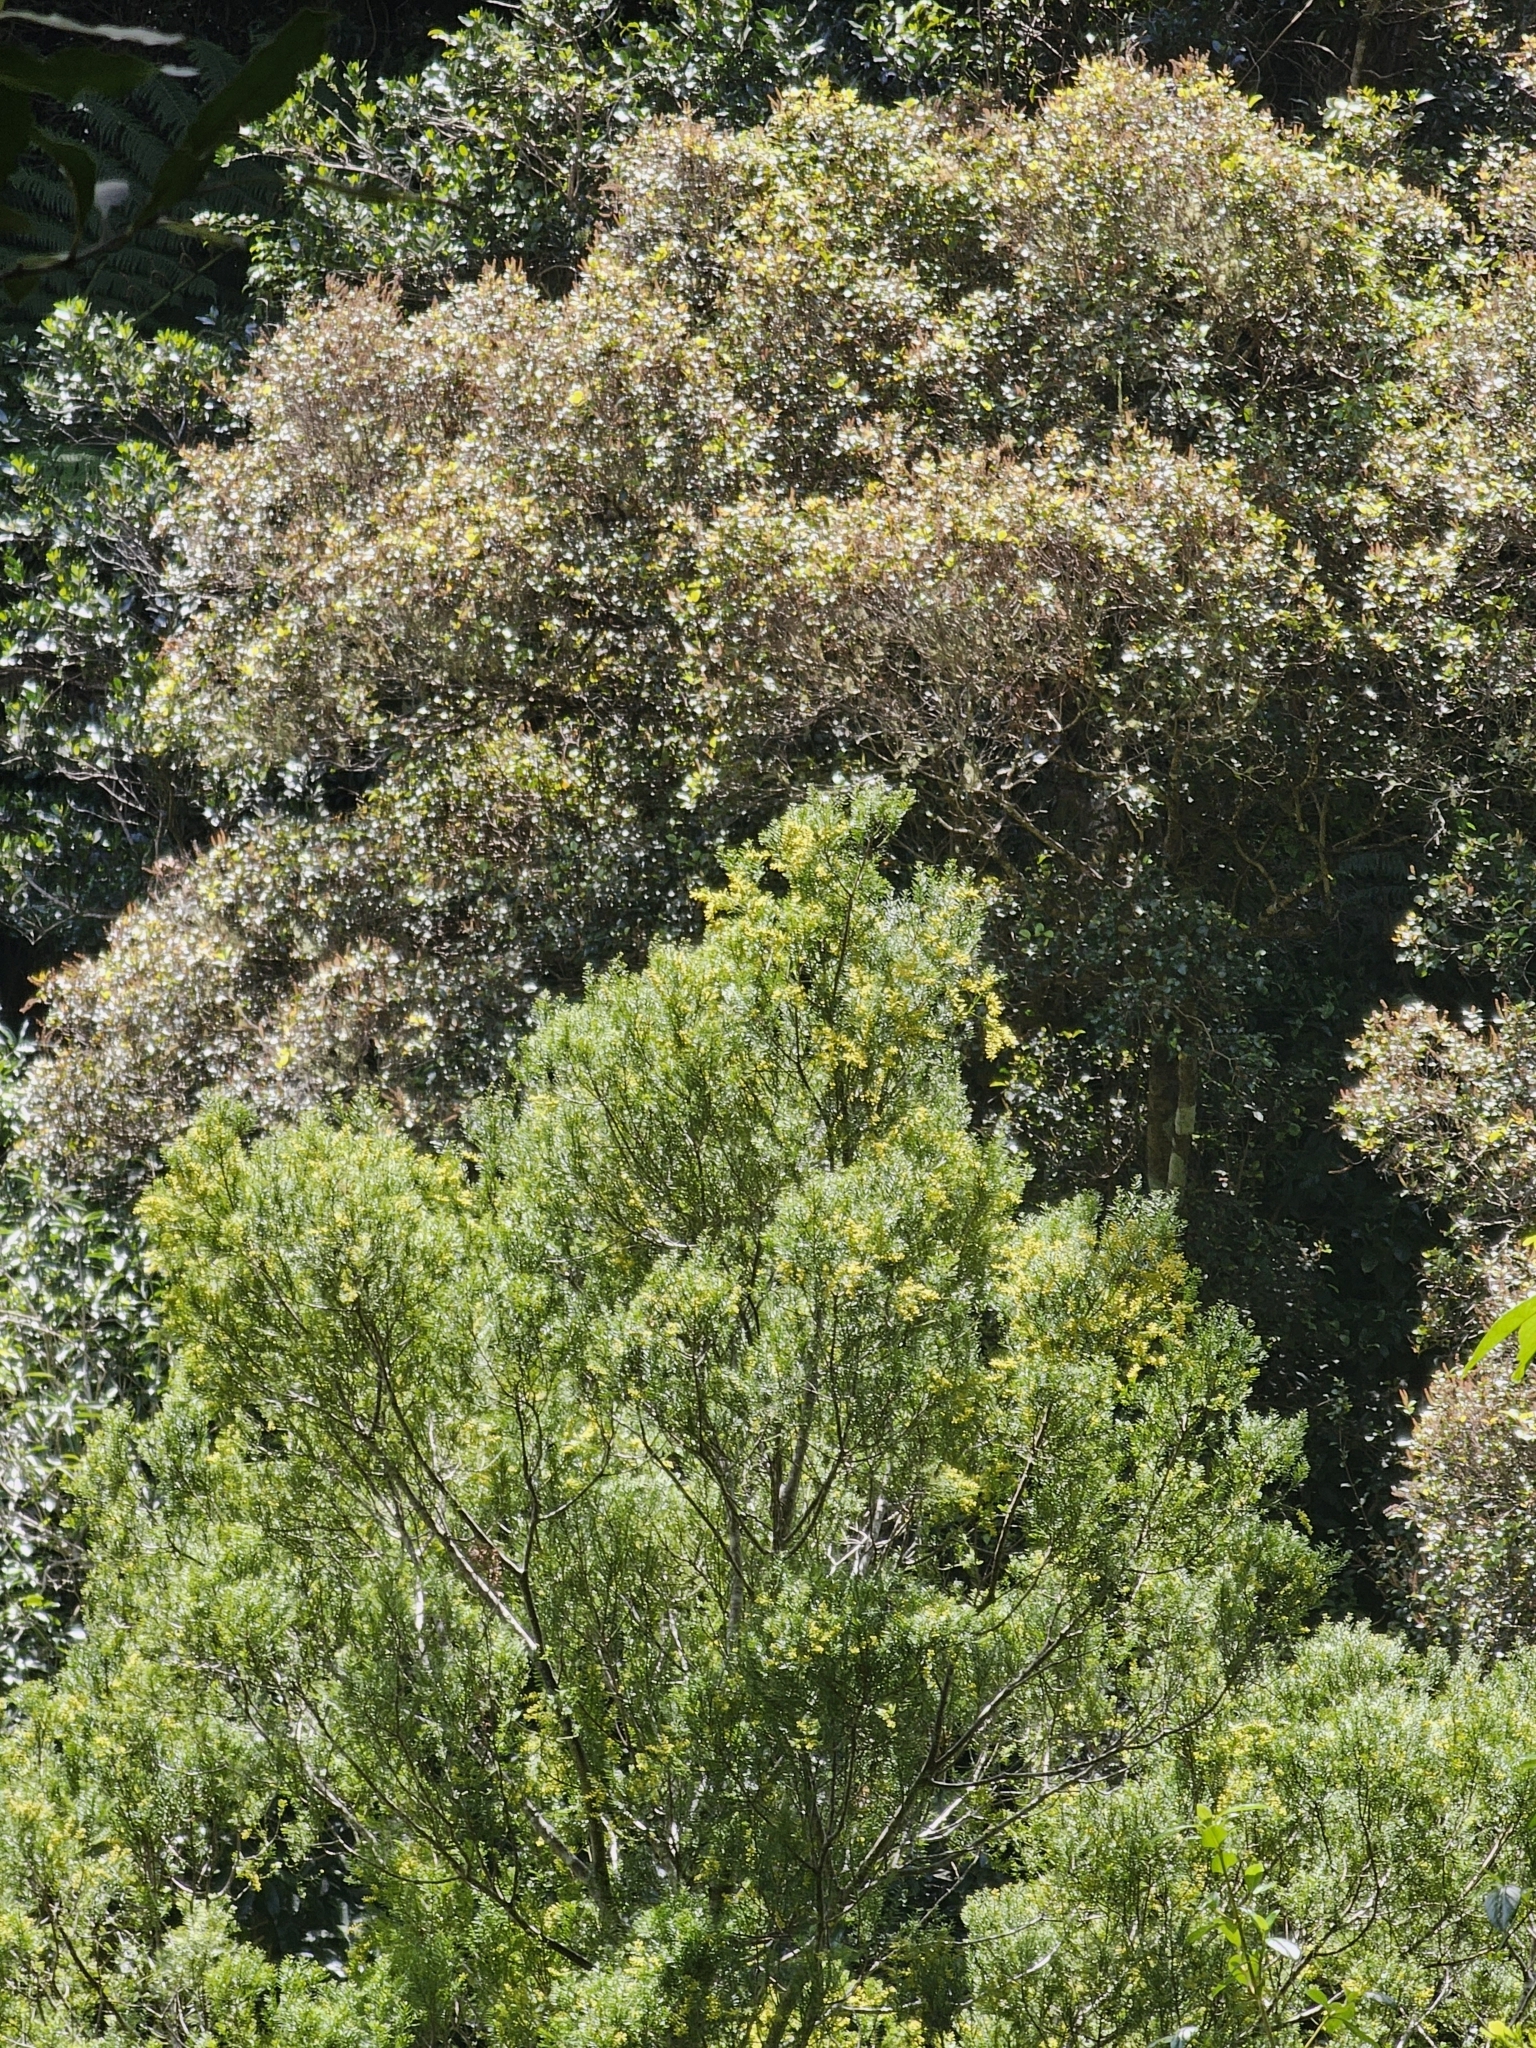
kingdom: Plantae
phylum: Tracheophyta
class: Pinopsida
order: Pinales
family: Podocarpaceae
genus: Prumnopitys
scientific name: Prumnopitys taxifolia
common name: Matai
